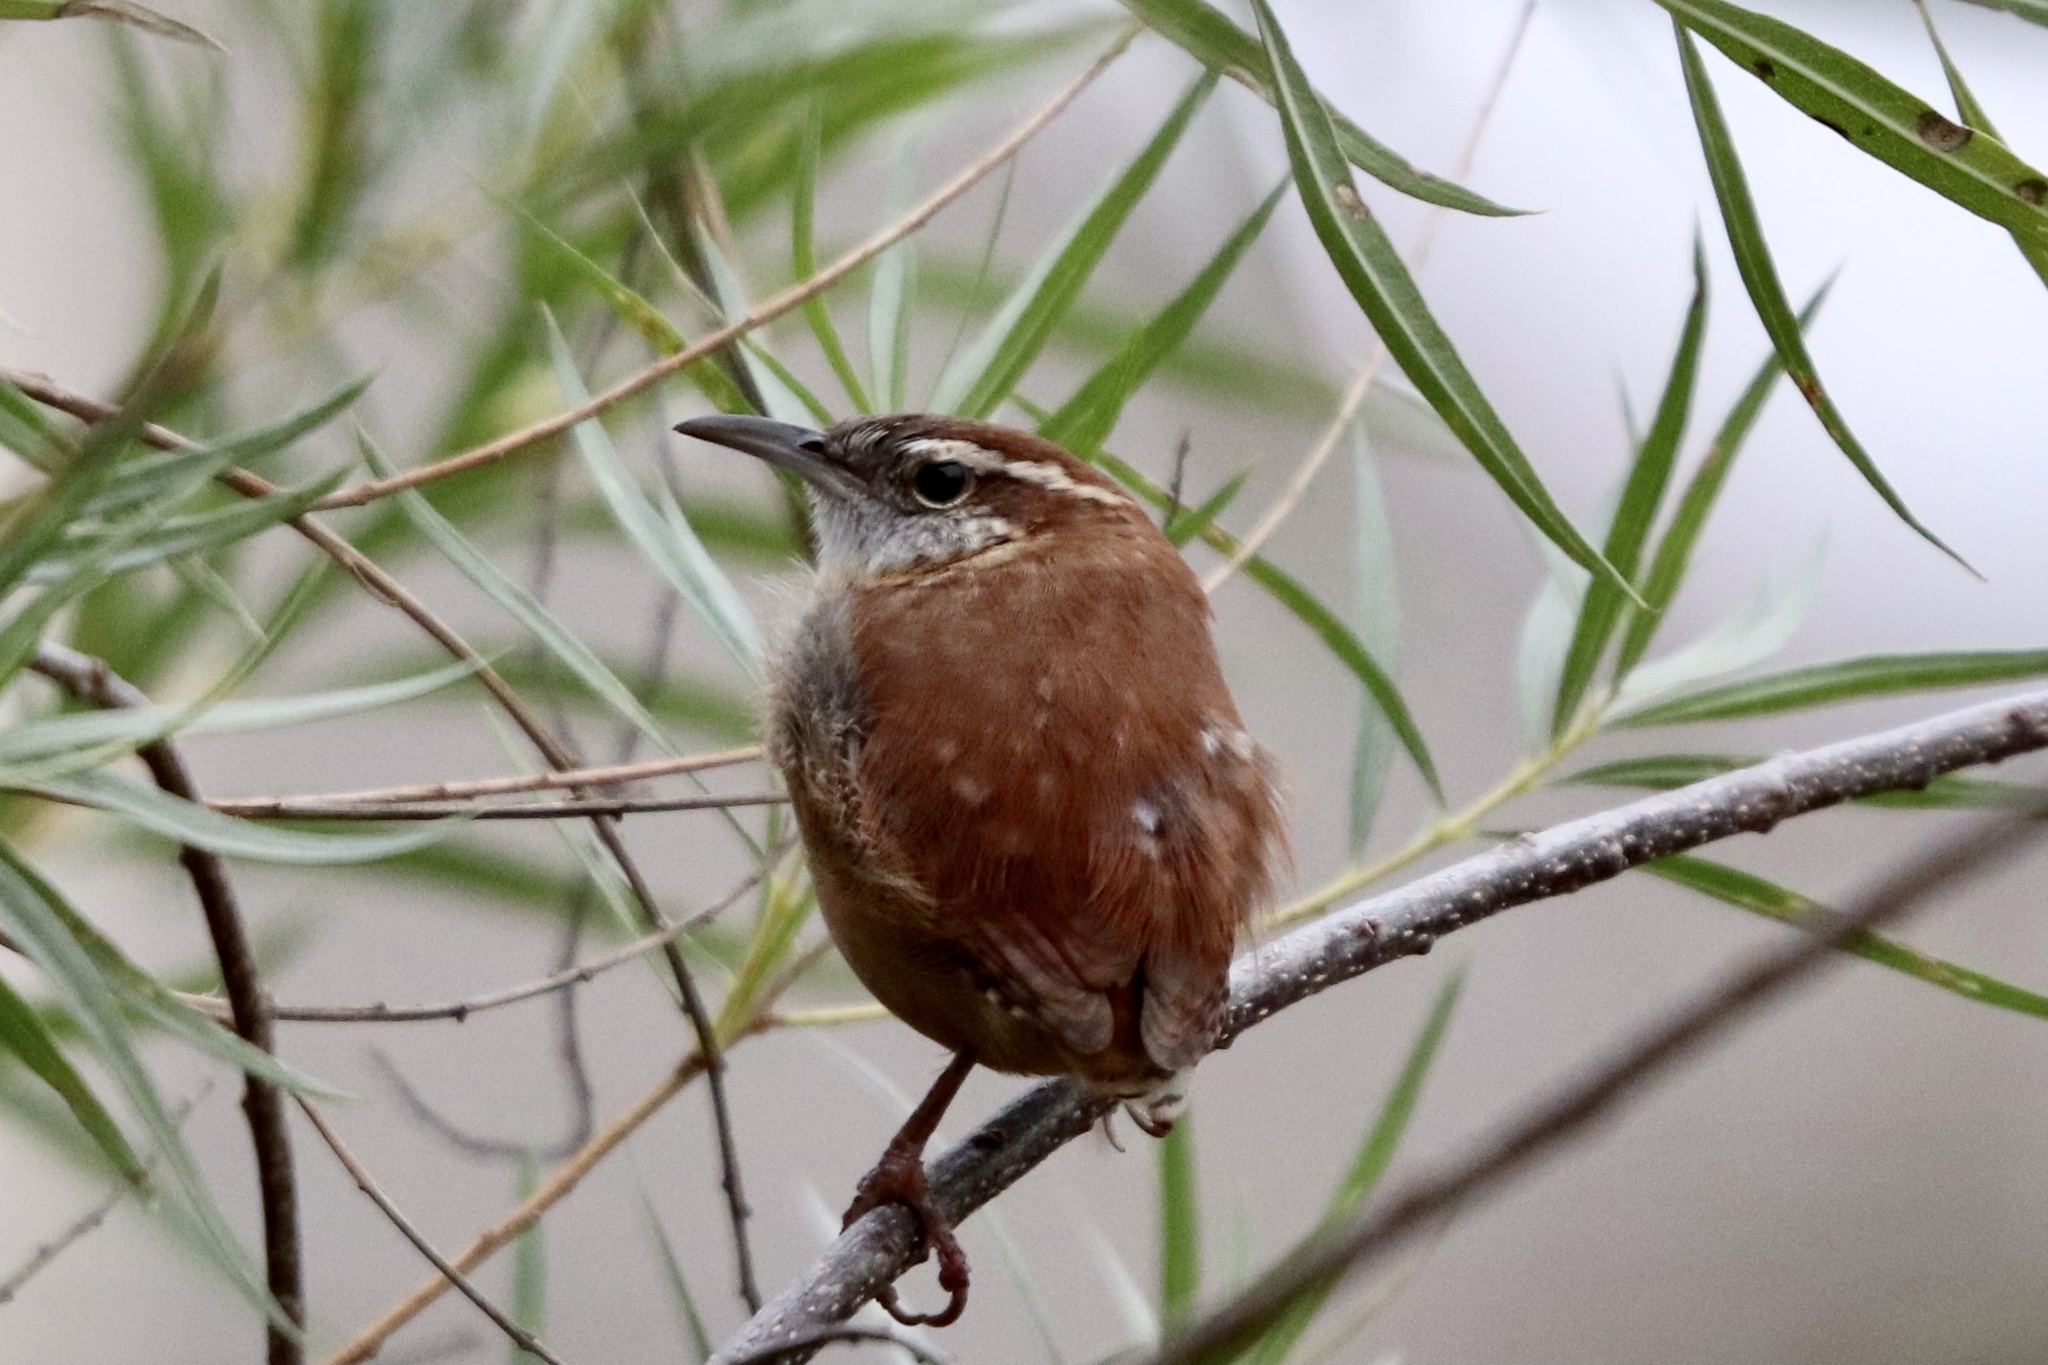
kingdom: Animalia
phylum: Chordata
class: Aves
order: Passeriformes
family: Troglodytidae
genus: Thryothorus
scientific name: Thryothorus ludovicianus
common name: Carolina wren
